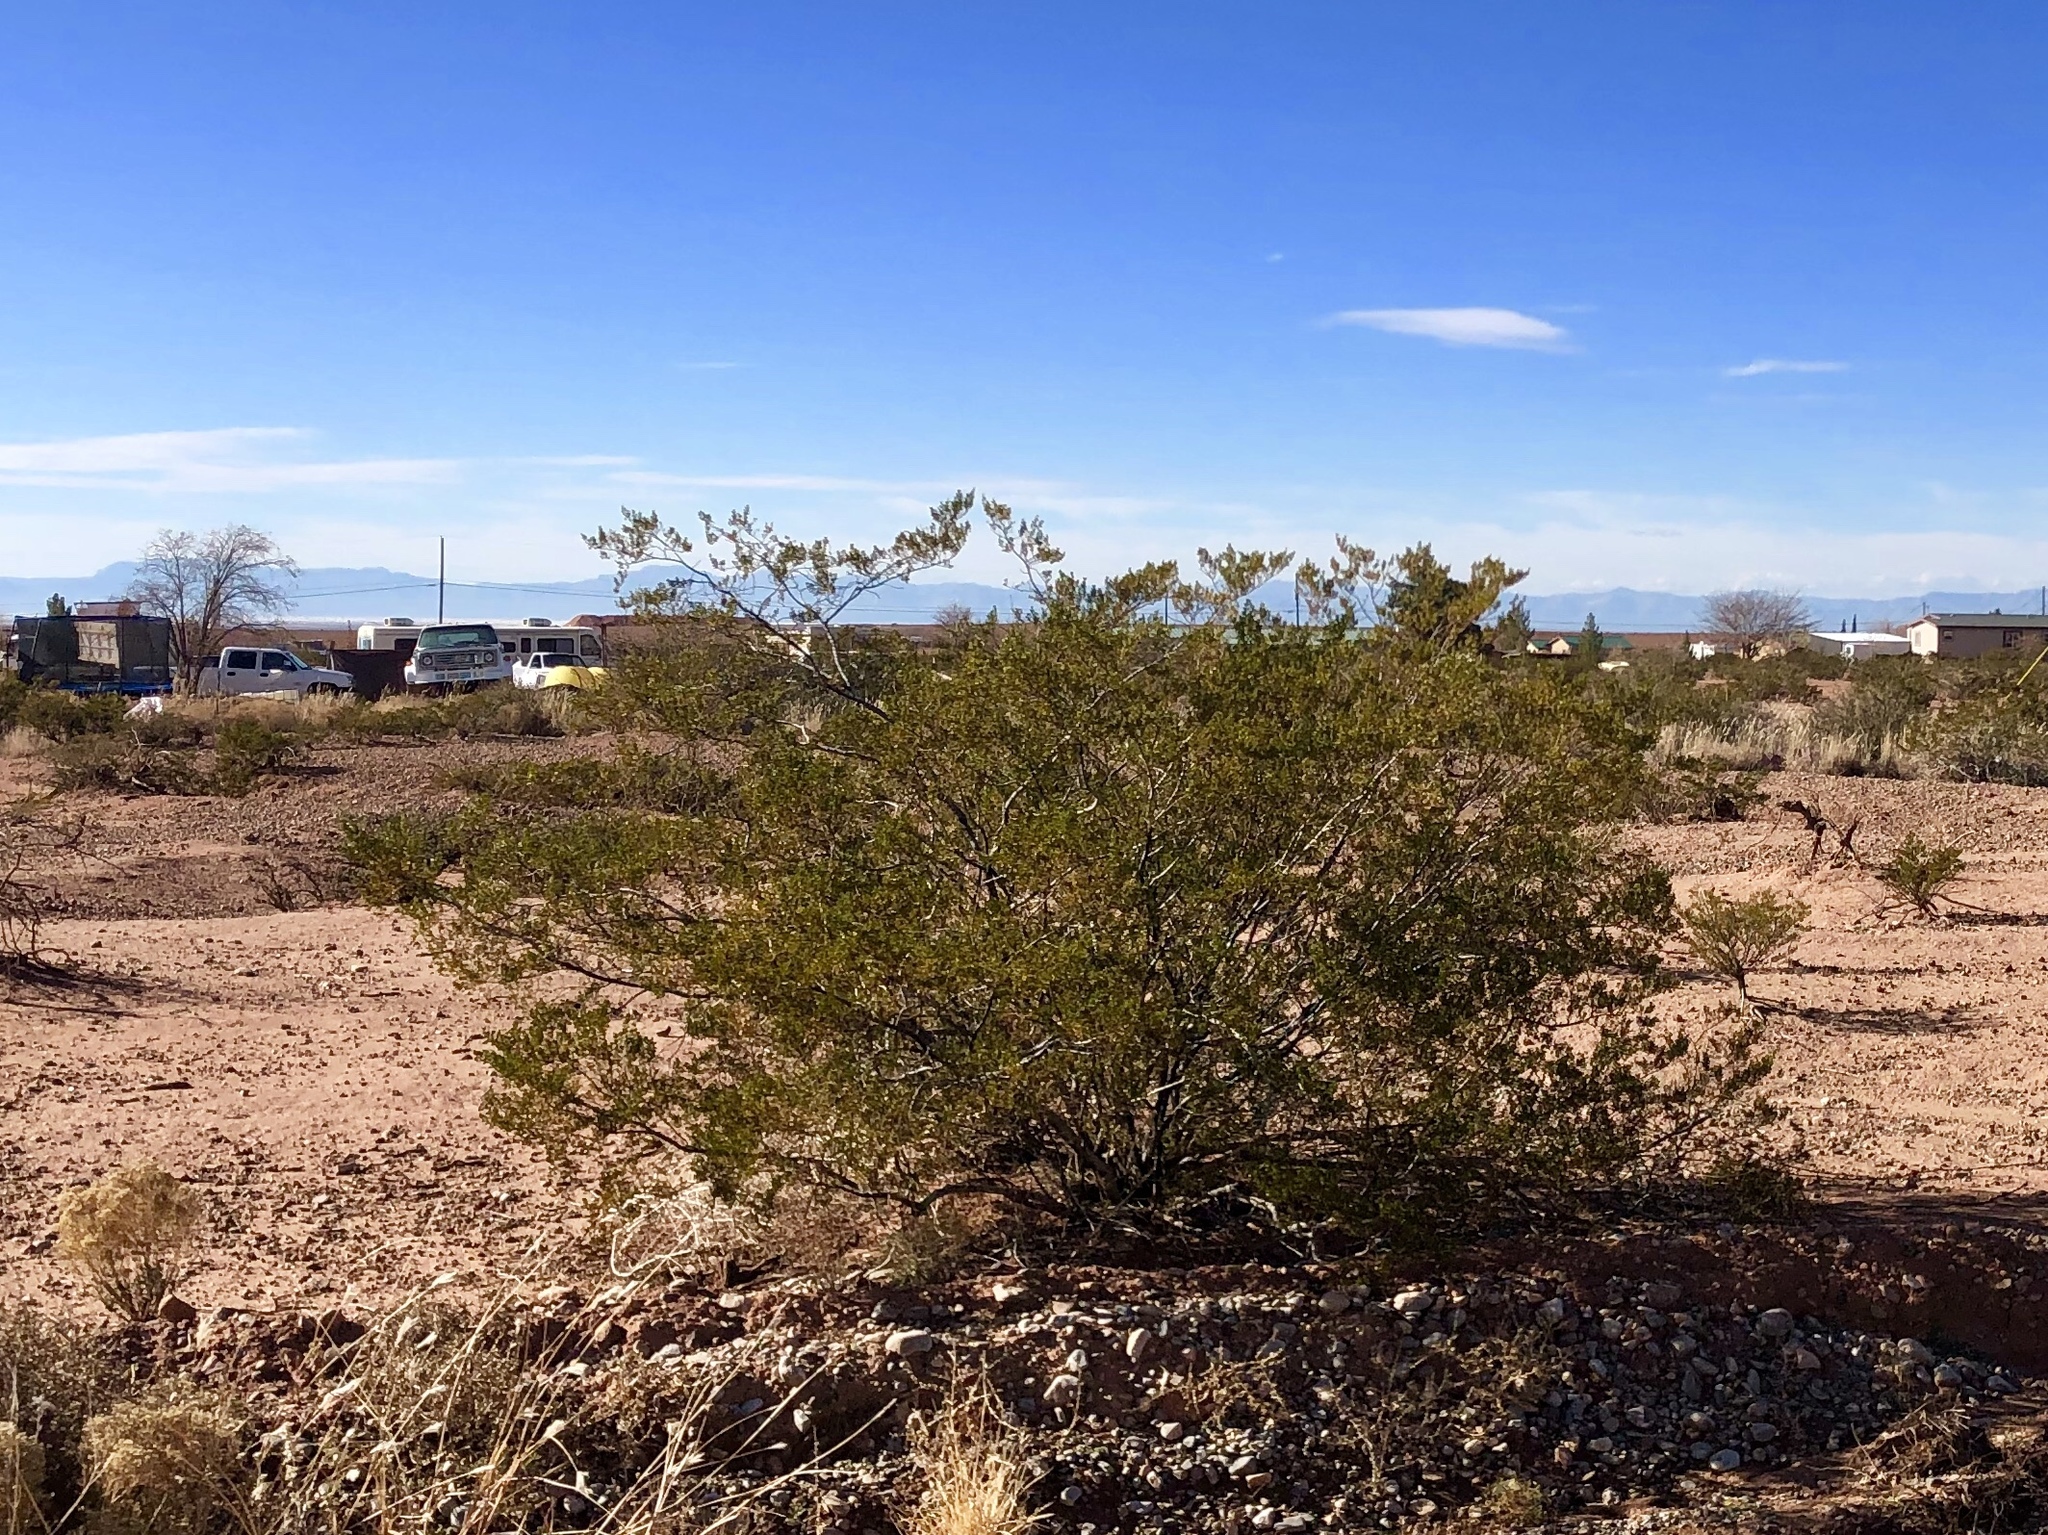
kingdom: Plantae
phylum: Tracheophyta
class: Magnoliopsida
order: Zygophyllales
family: Zygophyllaceae
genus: Larrea
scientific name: Larrea tridentata
